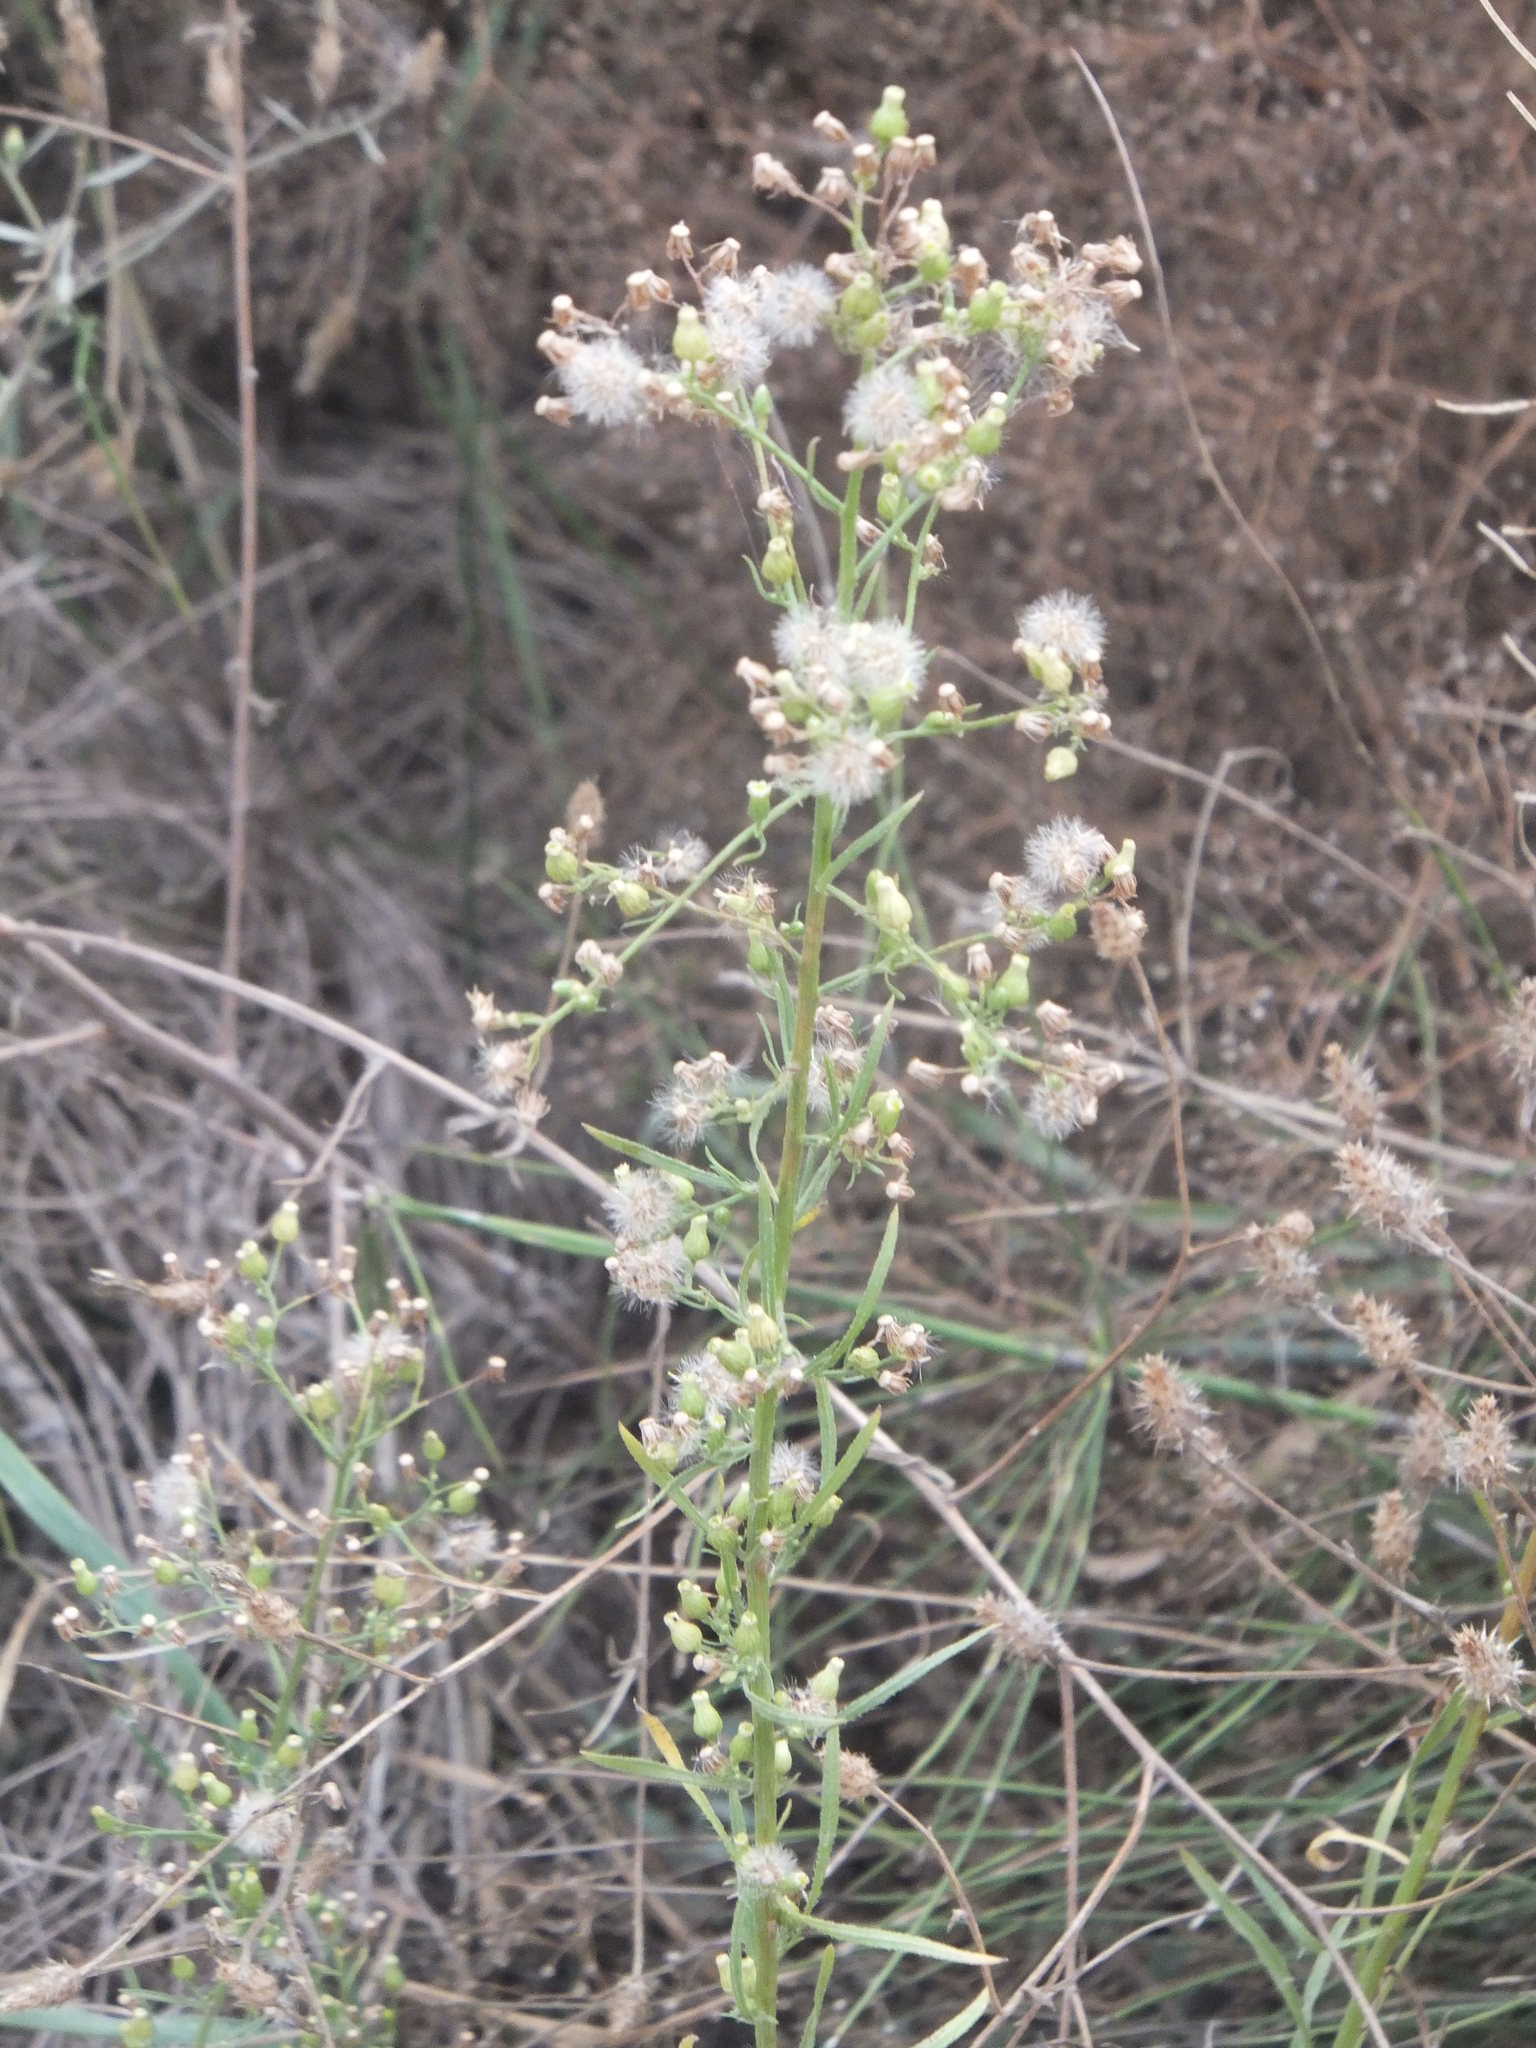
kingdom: Plantae
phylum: Tracheophyta
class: Magnoliopsida
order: Asterales
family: Asteraceae
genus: Erigeron
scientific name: Erigeron canadensis
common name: Canadian fleabane
